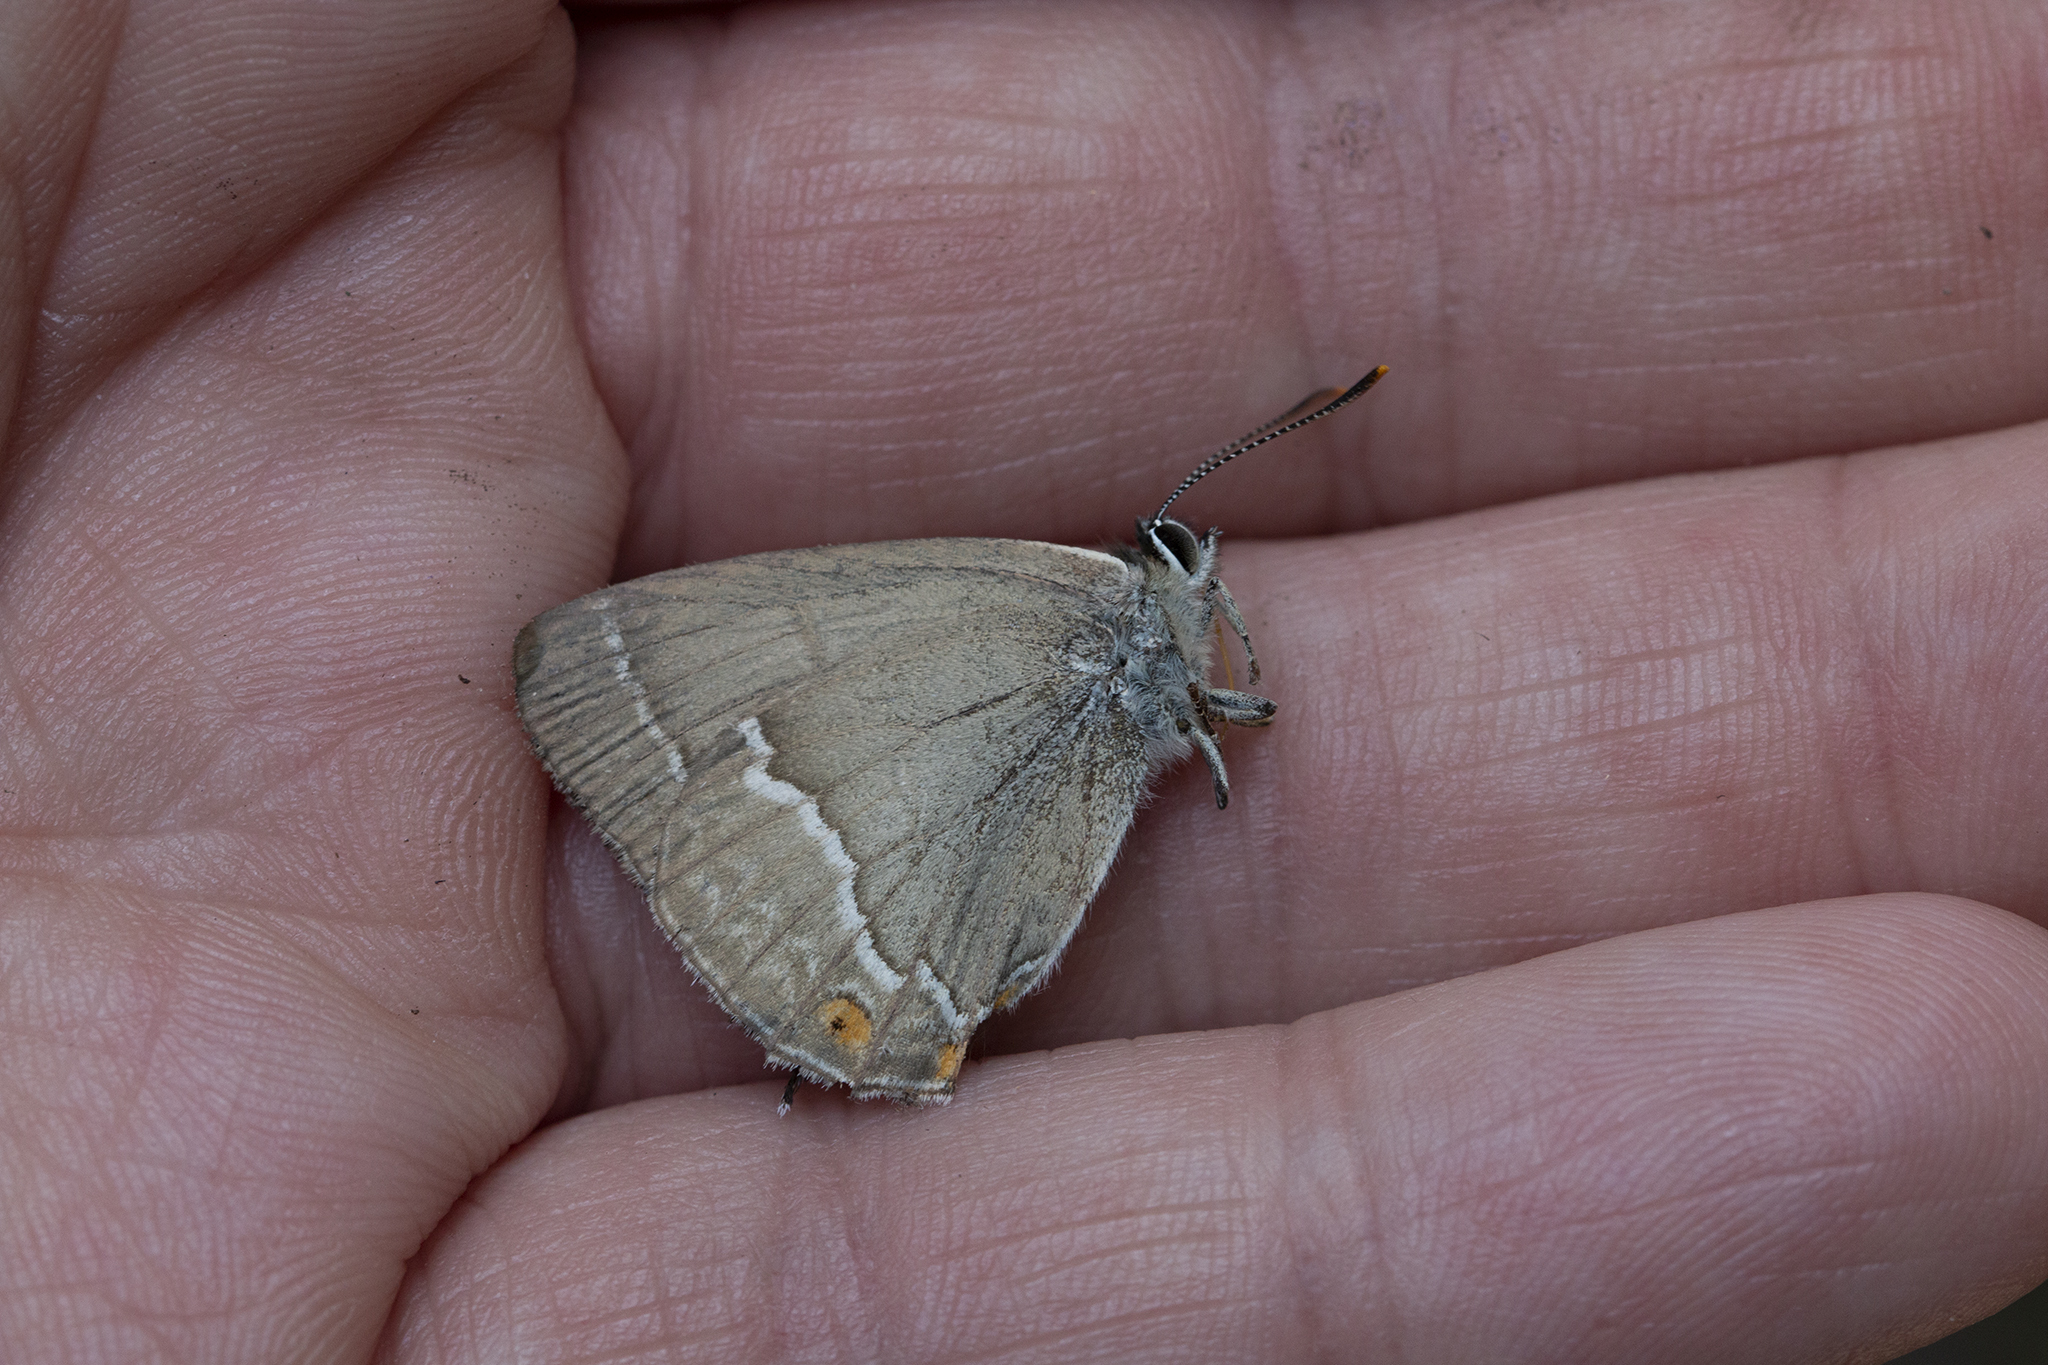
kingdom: Animalia
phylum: Arthropoda
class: Insecta
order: Lepidoptera
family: Lycaenidae
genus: Quercusia
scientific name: Quercusia quercus
